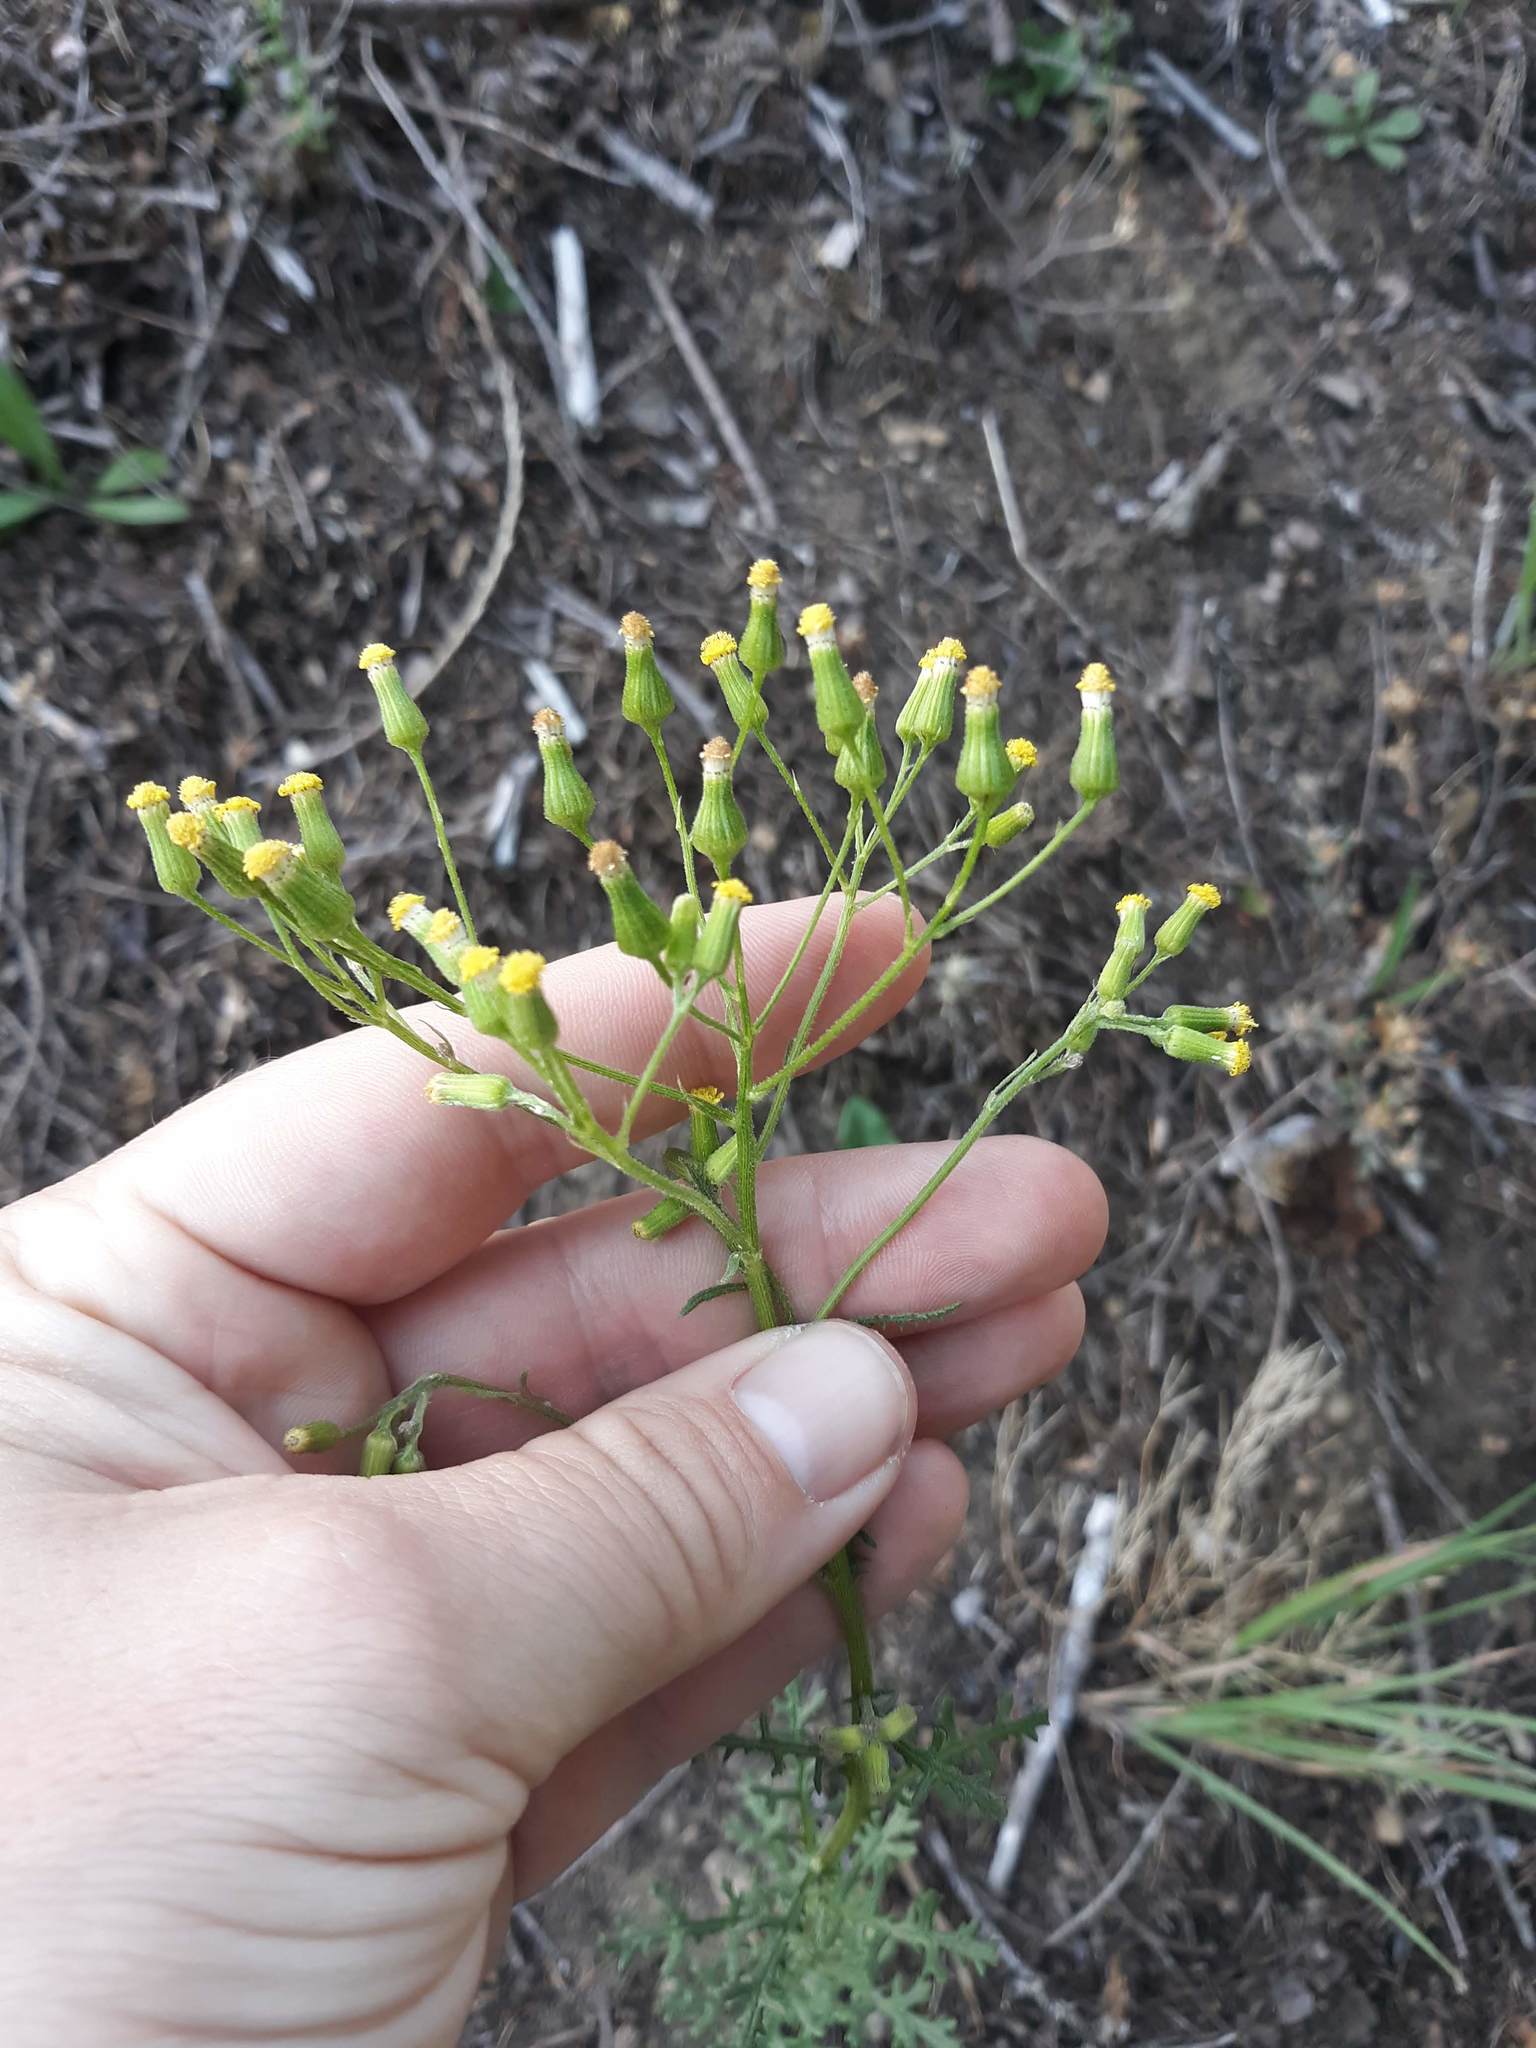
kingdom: Plantae
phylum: Tracheophyta
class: Magnoliopsida
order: Asterales
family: Asteraceae
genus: Senecio
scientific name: Senecio sylvaticus
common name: Woodland ragwort
